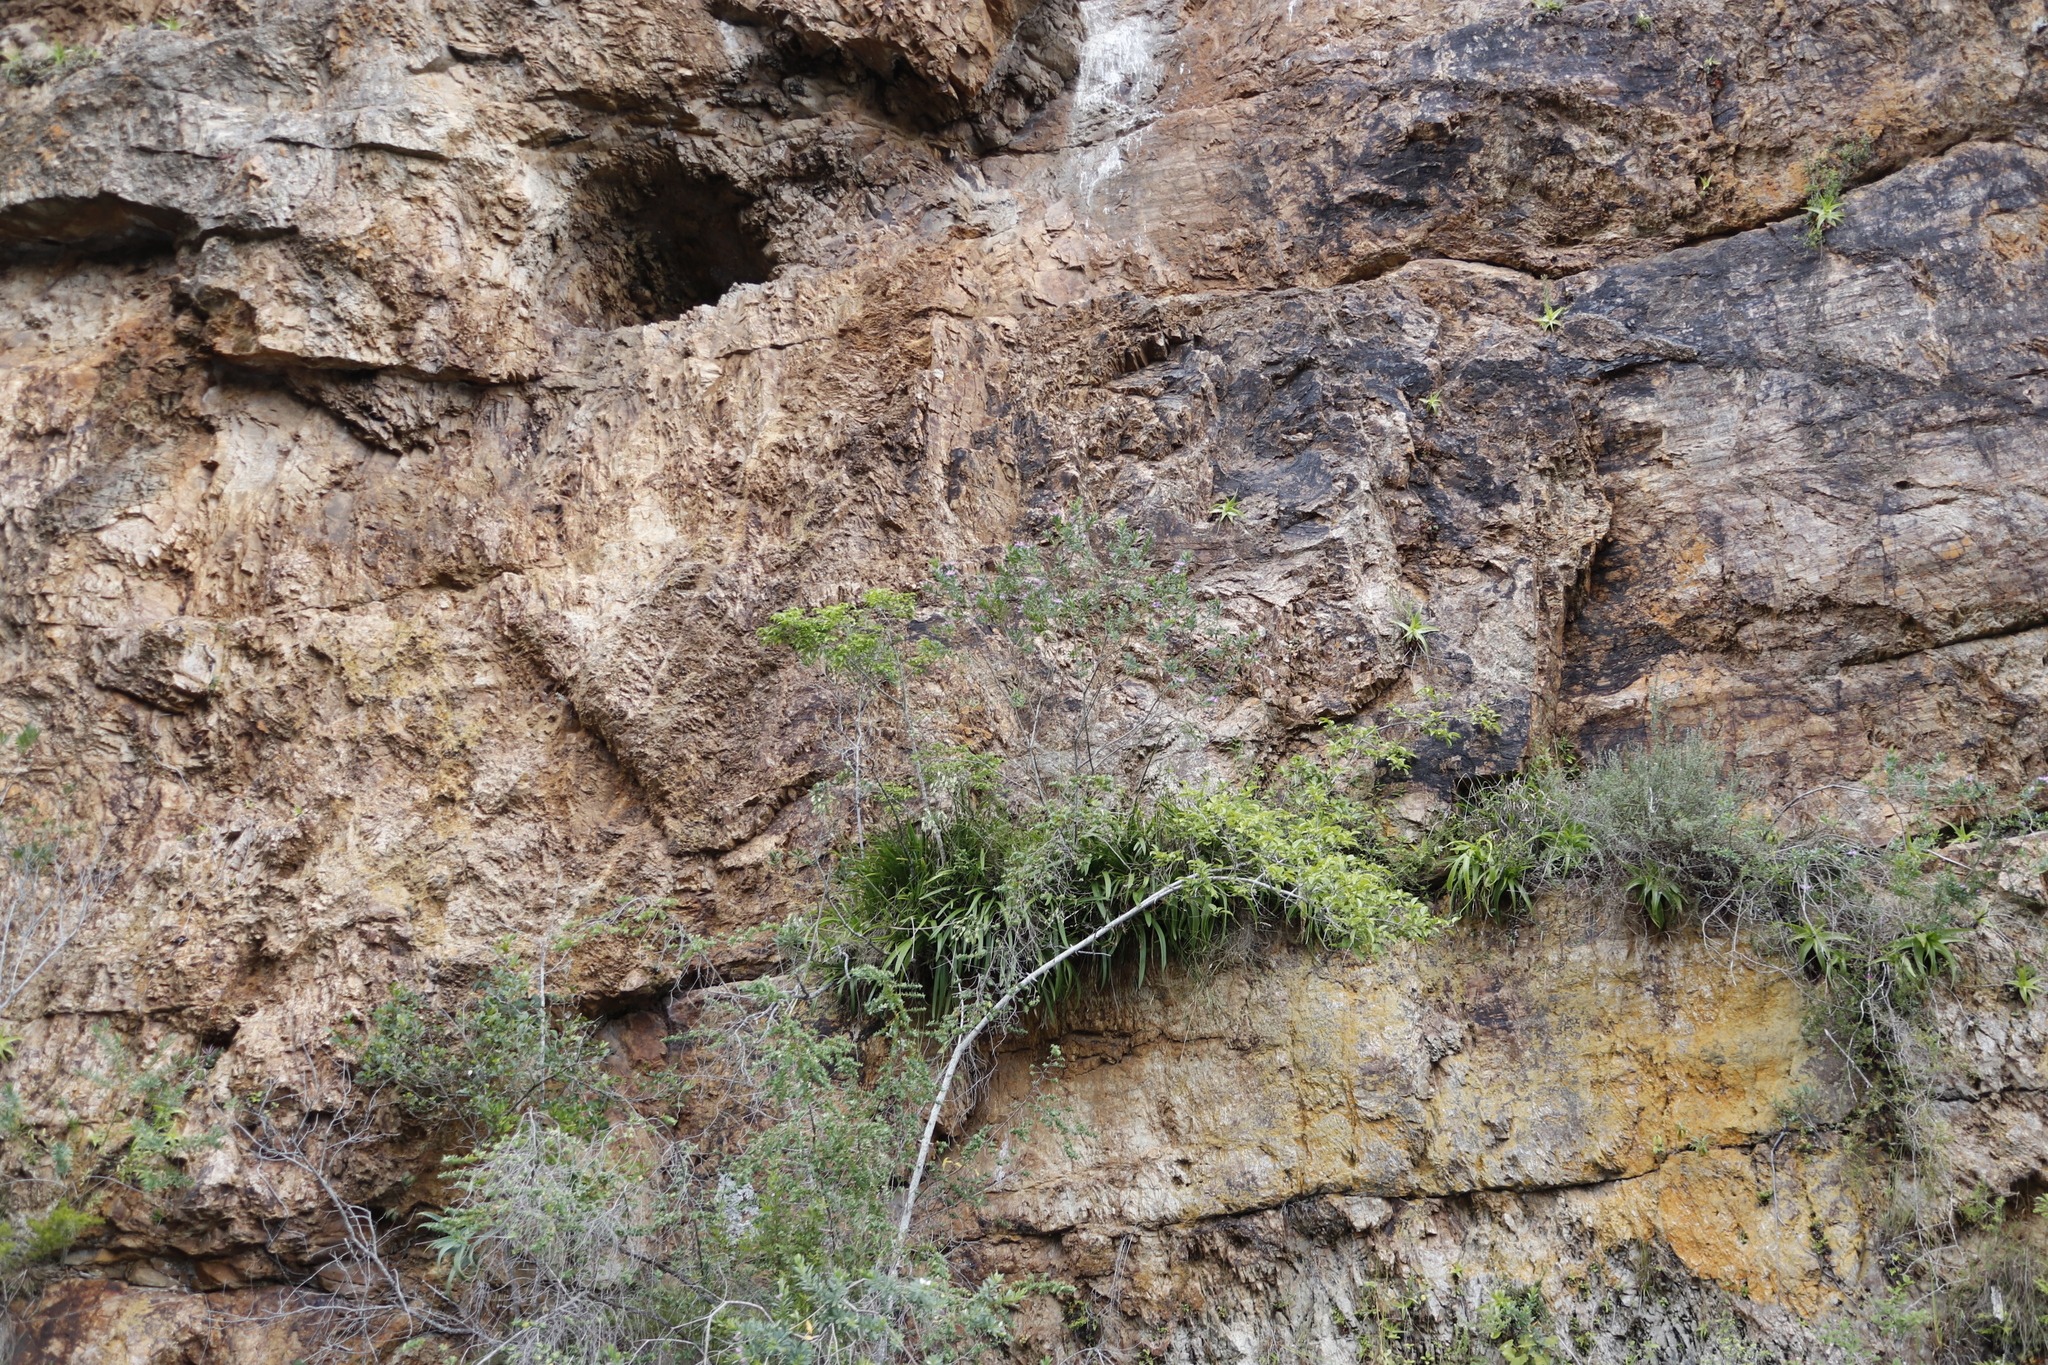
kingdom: Plantae
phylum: Tracheophyta
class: Magnoliopsida
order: Fabales
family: Polygalaceae
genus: Polygala
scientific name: Polygala myrtifolia
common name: Myrtle-leaf milkwort
